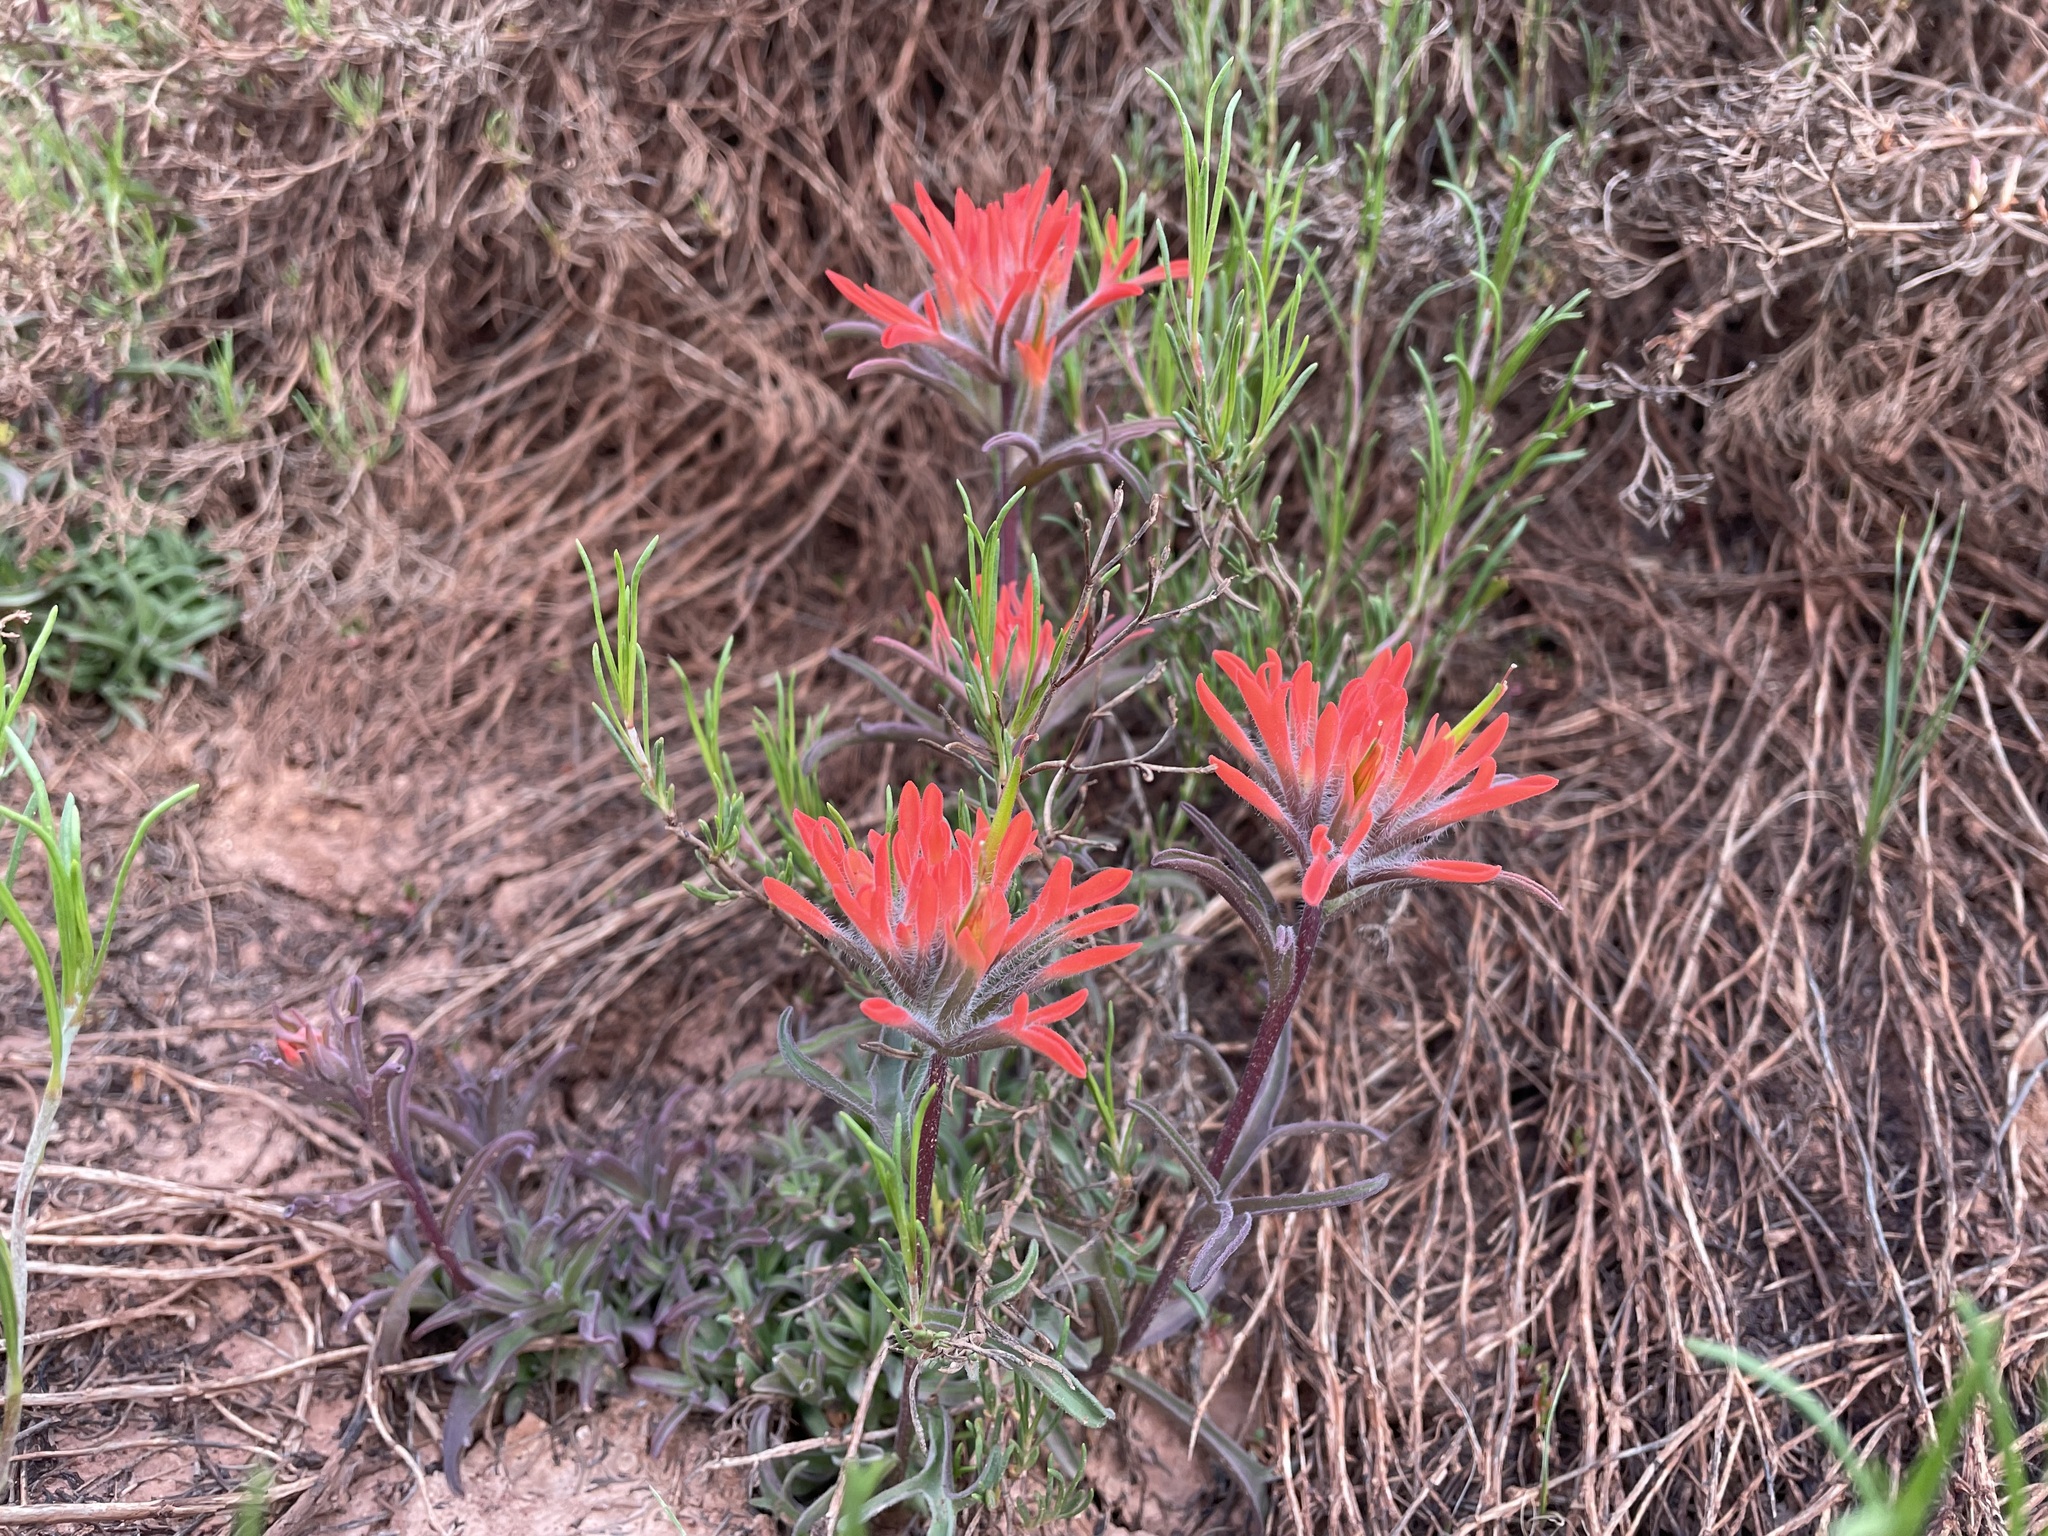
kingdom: Plantae
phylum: Tracheophyta
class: Magnoliopsida
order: Lamiales
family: Orobanchaceae
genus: Castilleja
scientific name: Castilleja chromosa
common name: Desert paintbrush
